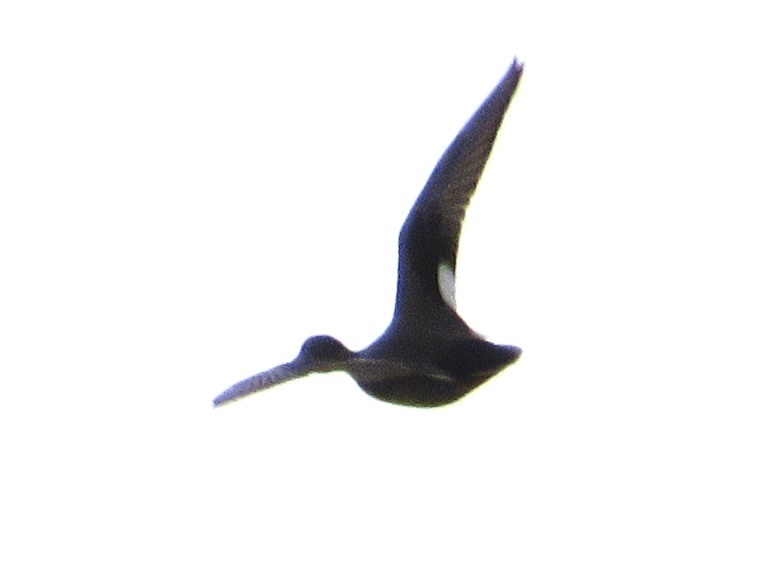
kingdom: Animalia
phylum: Chordata
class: Aves
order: Anseriformes
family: Anatidae
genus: Mareca
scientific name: Mareca strepera
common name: Gadwall
